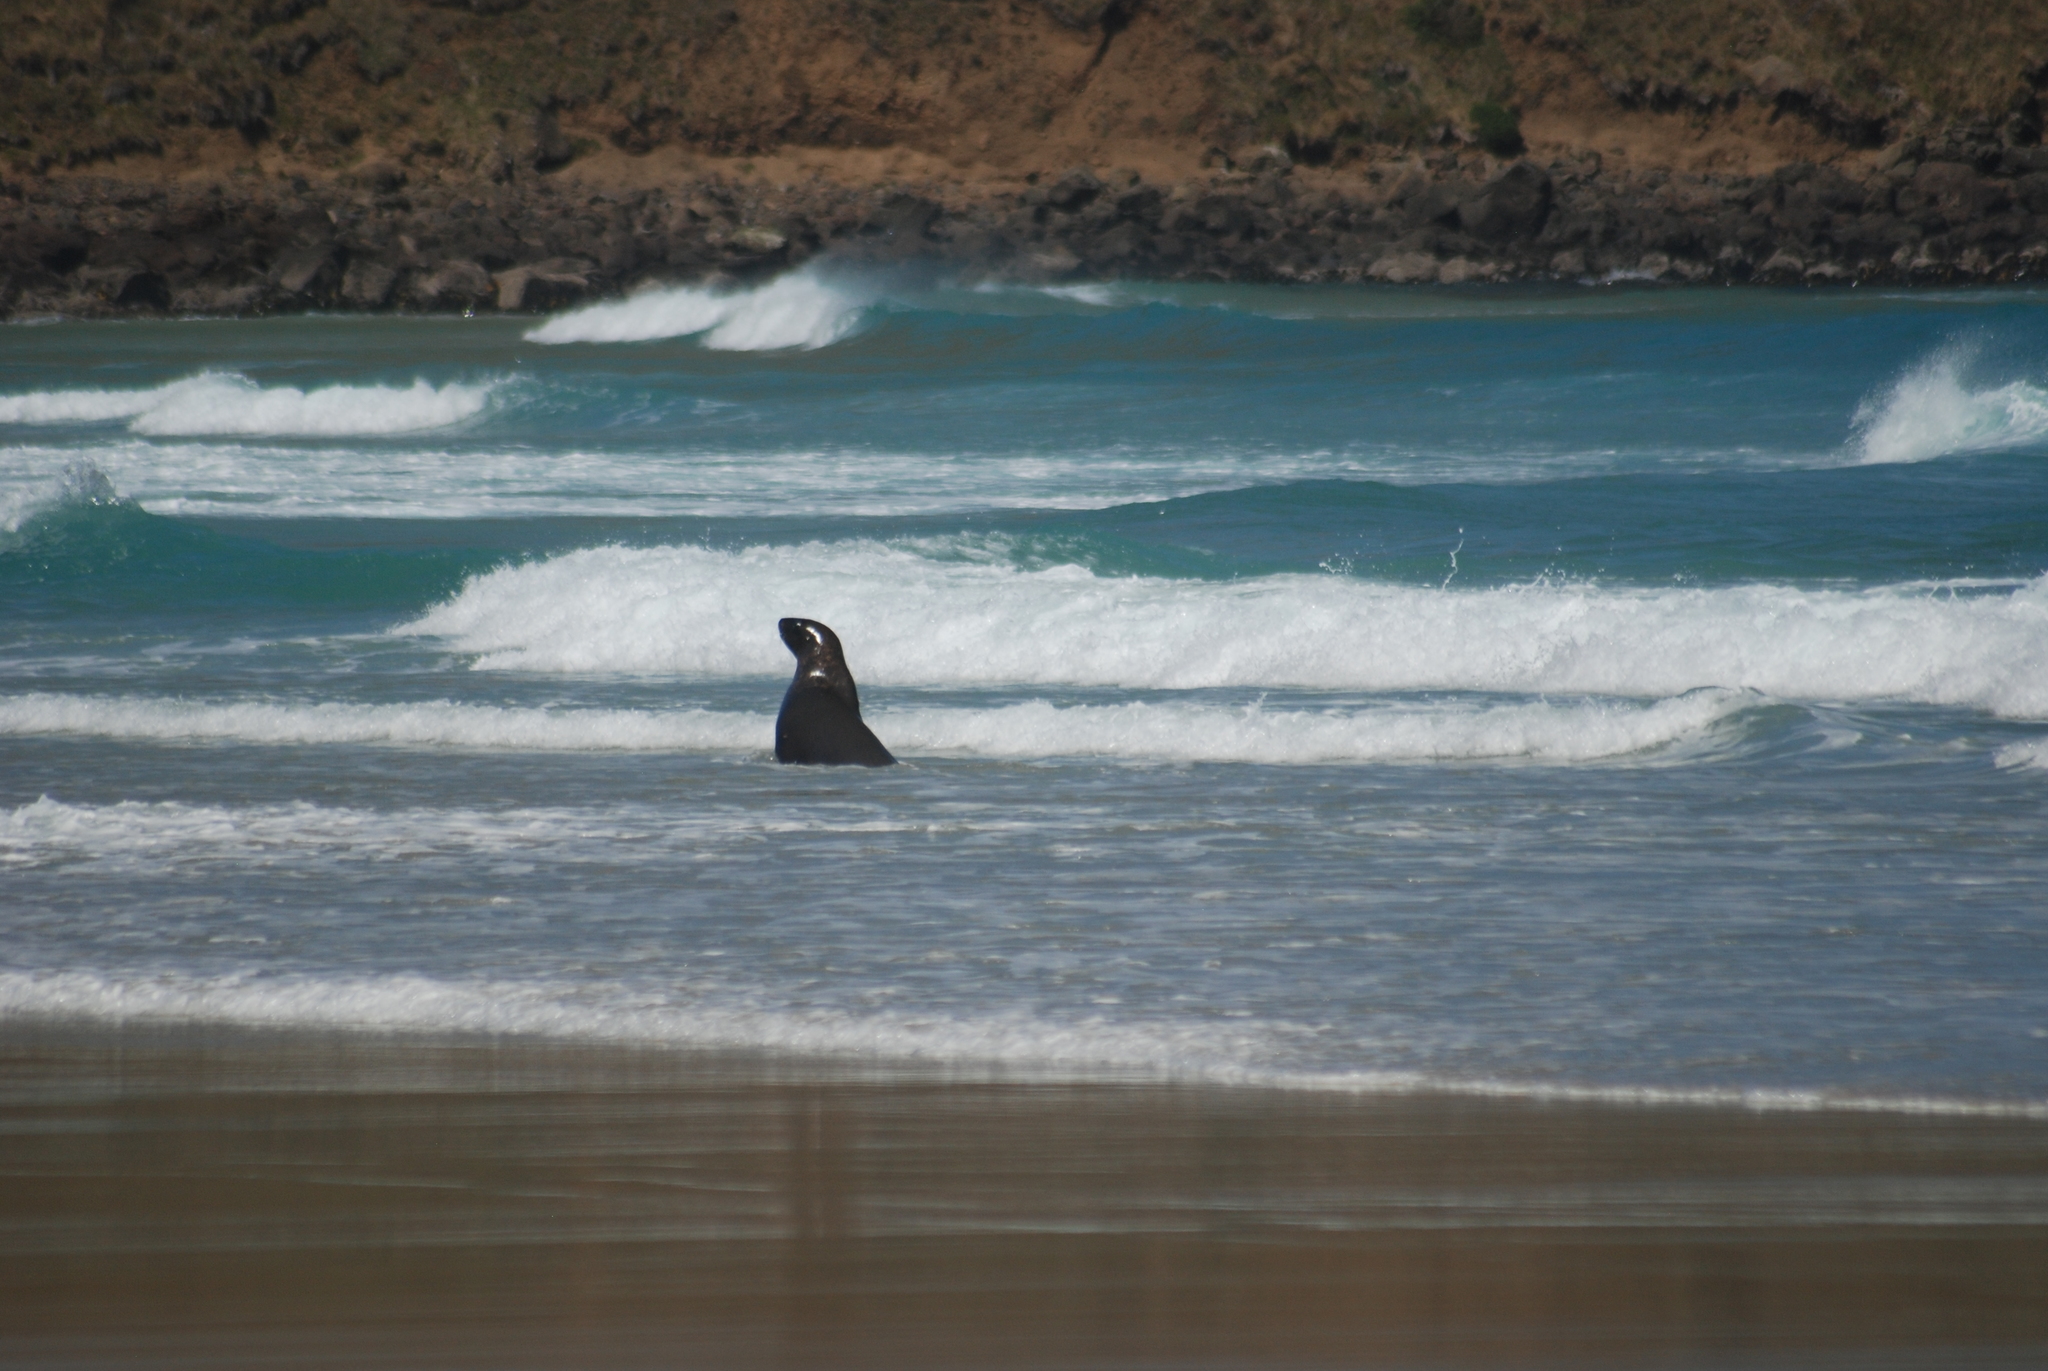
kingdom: Animalia
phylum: Chordata
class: Mammalia
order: Carnivora
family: Otariidae
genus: Phocarctos
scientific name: Phocarctos hookeri
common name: New zealand sea lion
